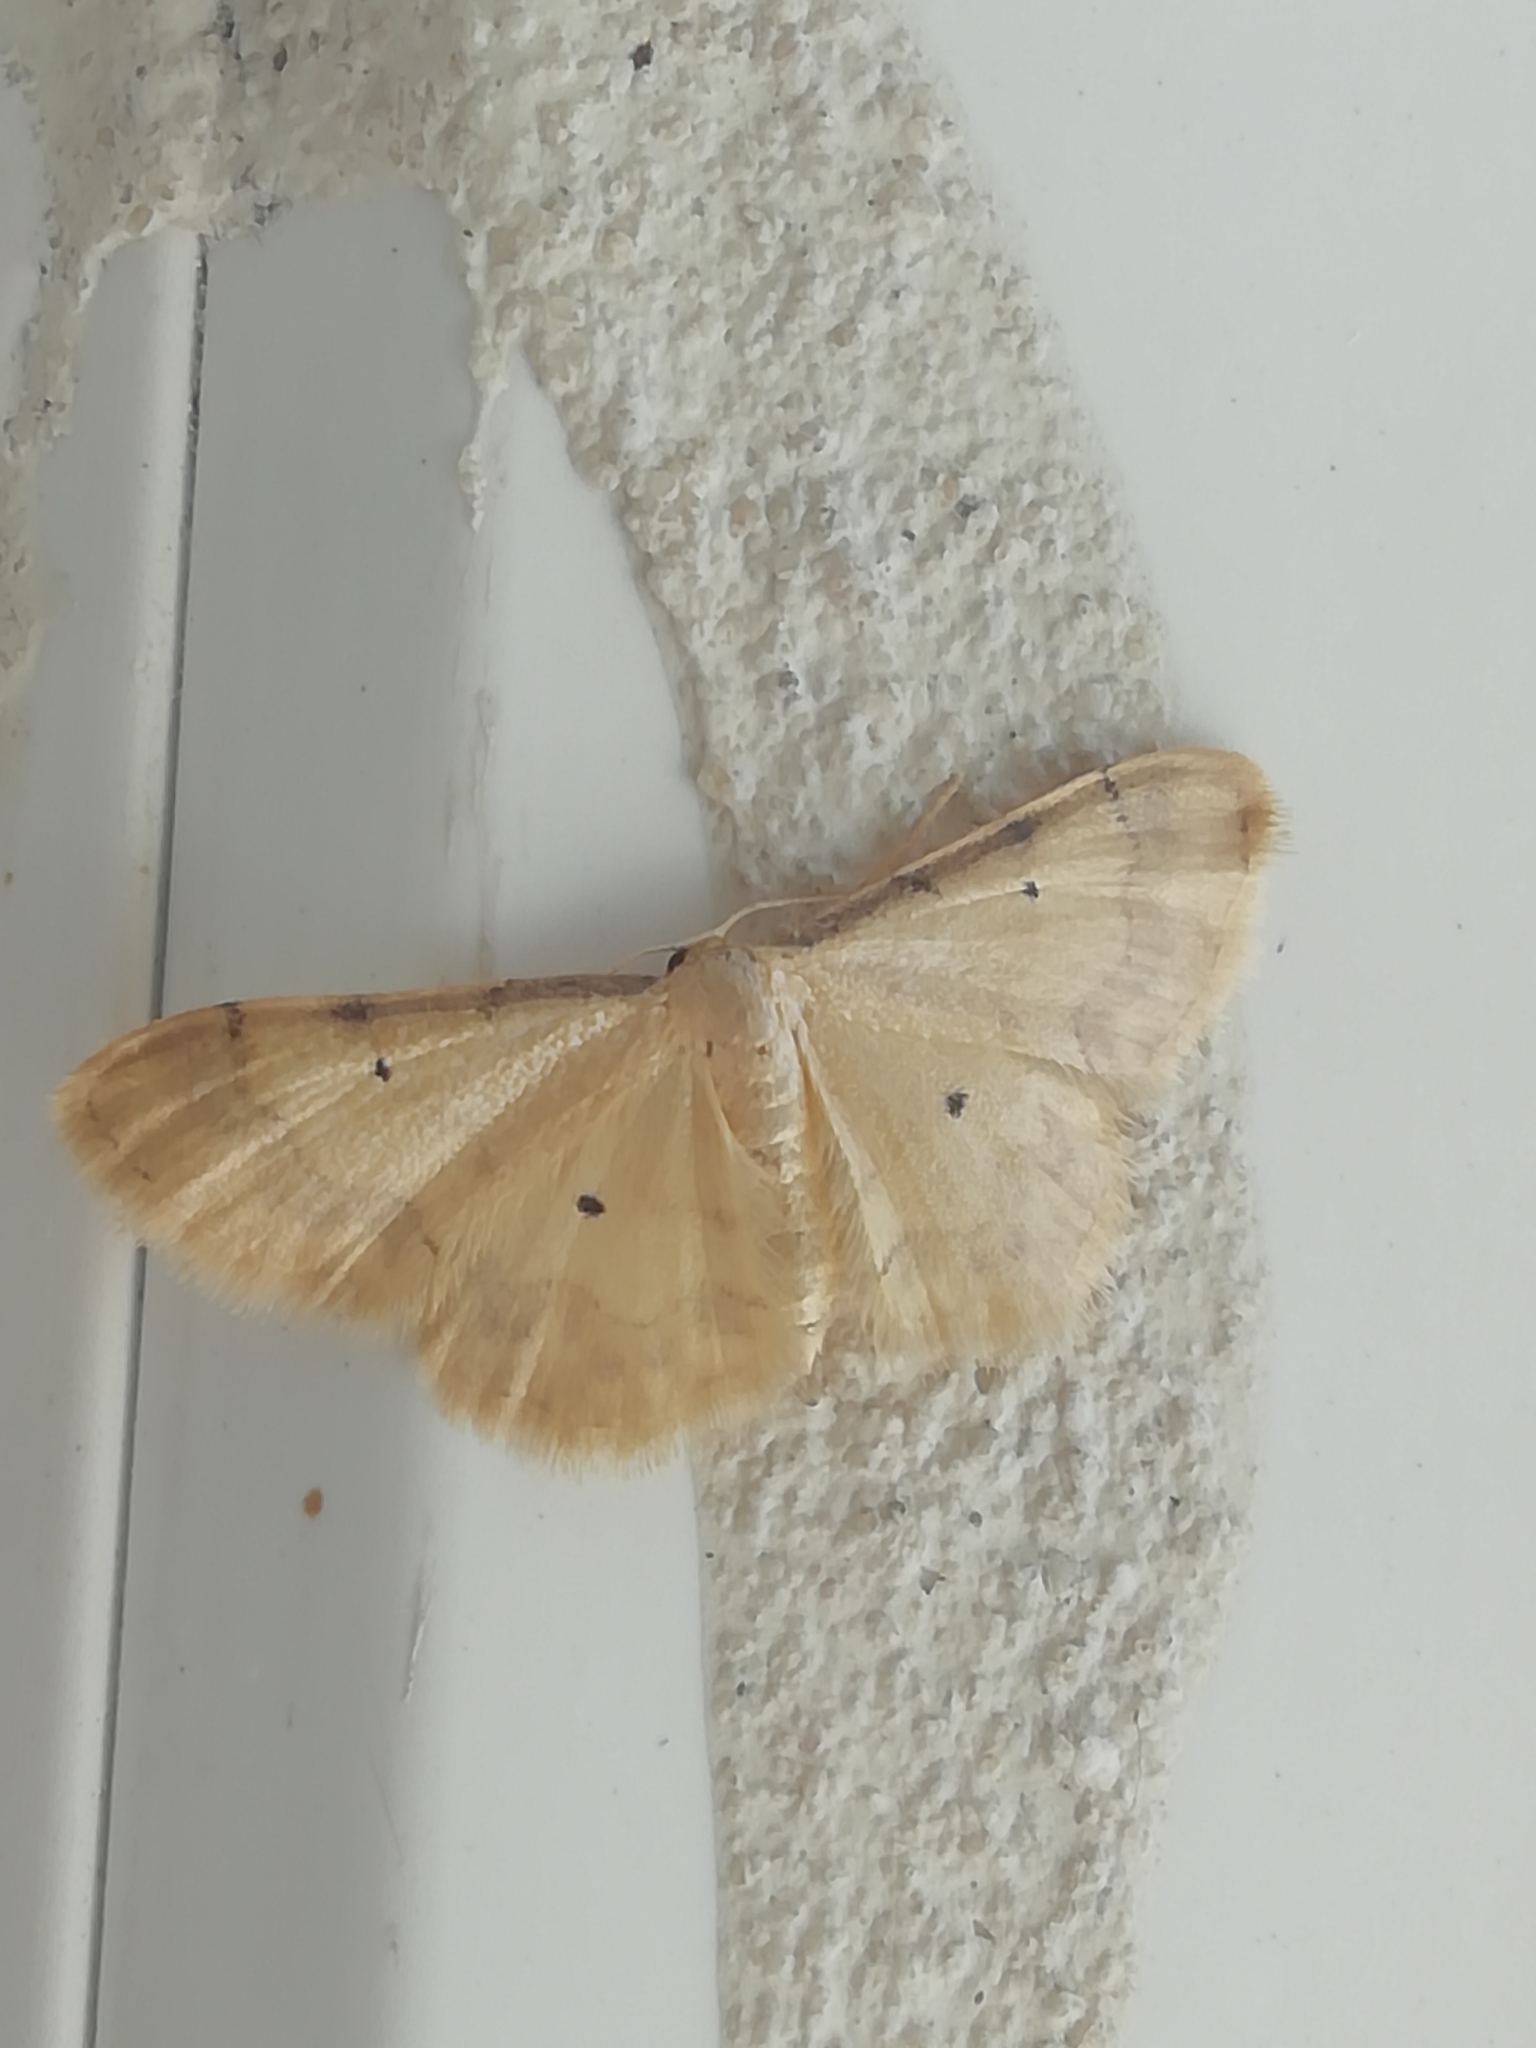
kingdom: Animalia
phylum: Arthropoda
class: Insecta
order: Lepidoptera
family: Geometridae
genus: Idaea
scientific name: Idaea politaria
